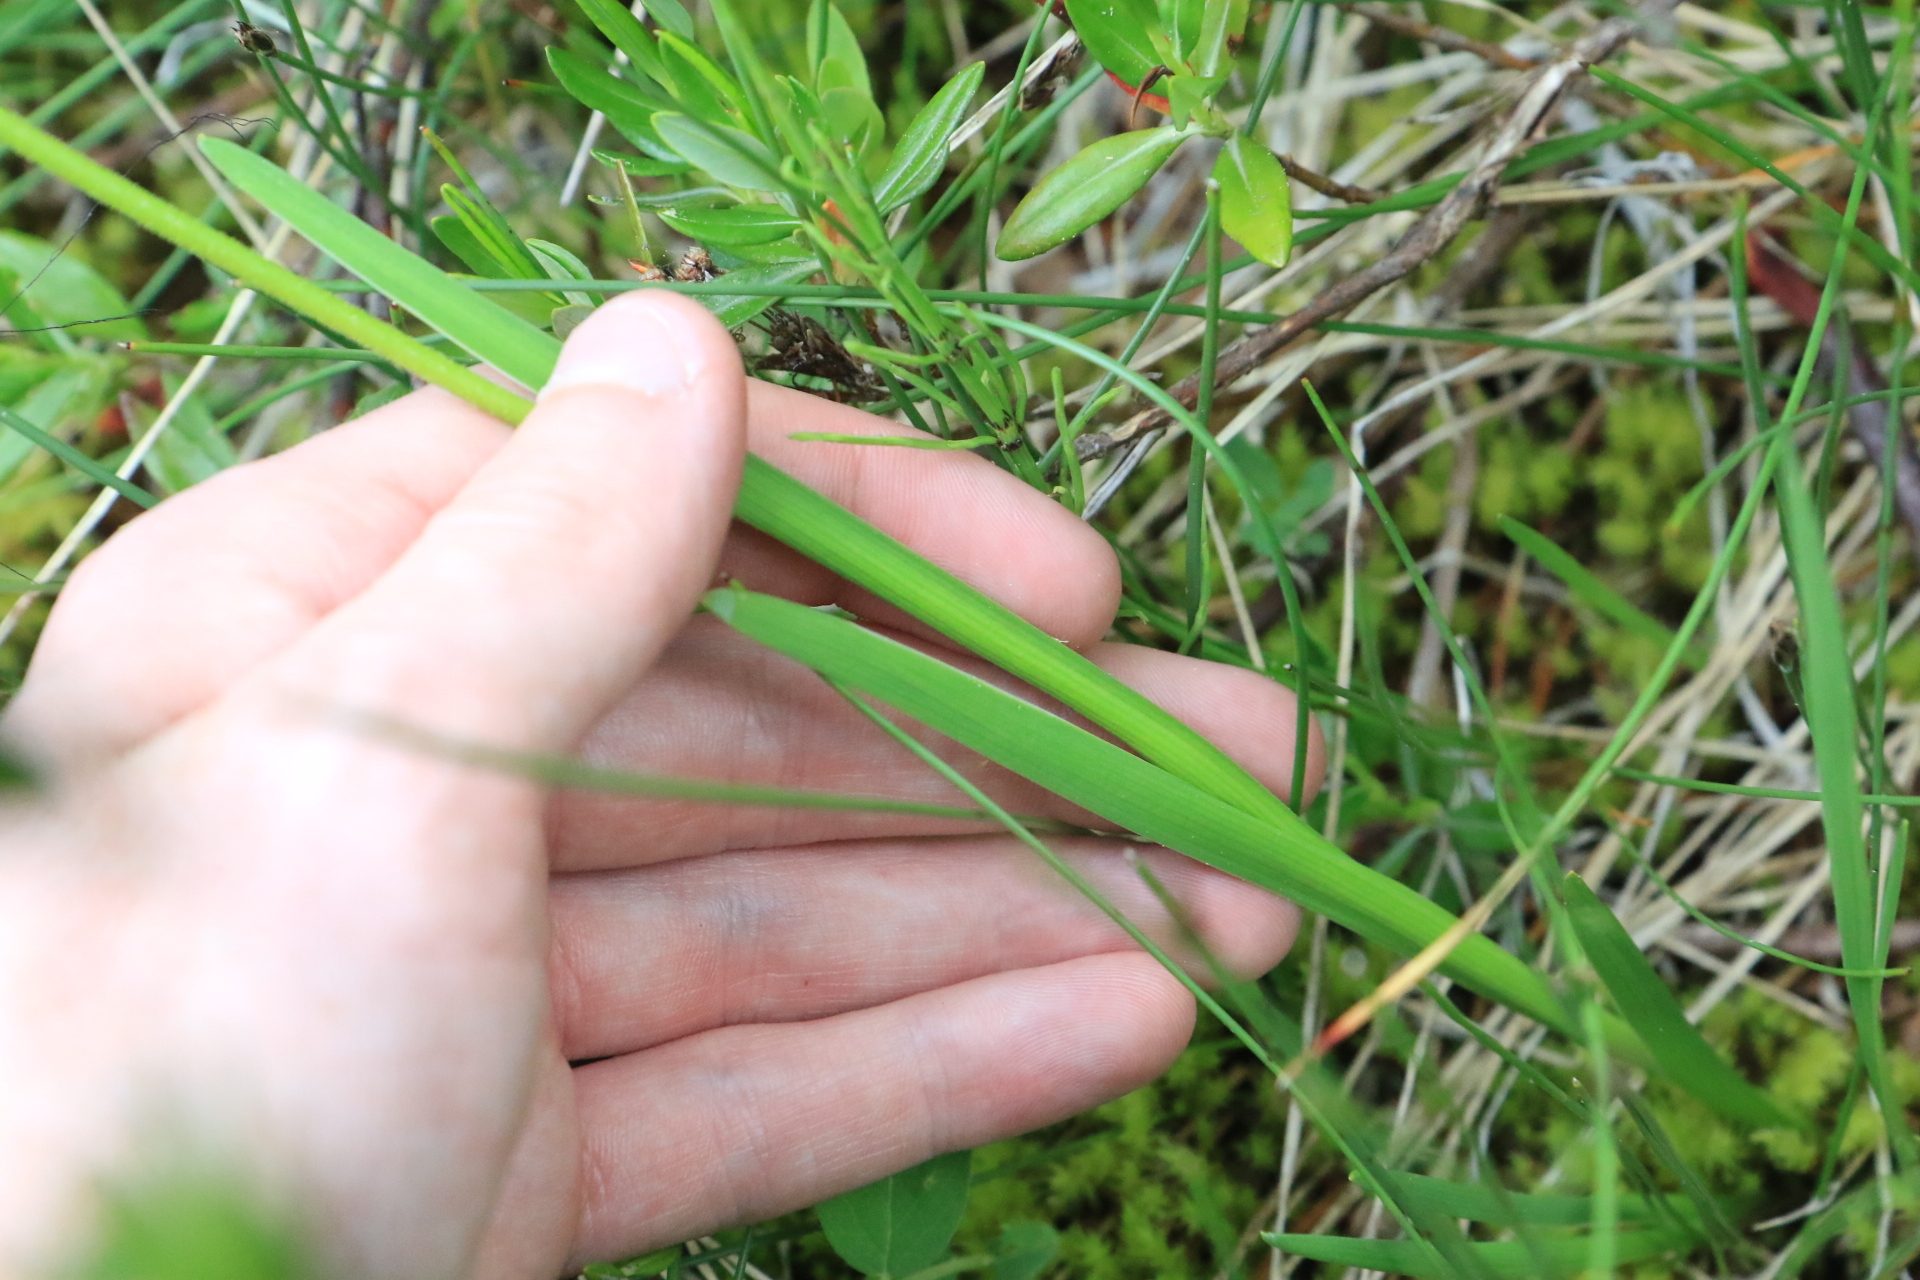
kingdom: Plantae
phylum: Tracheophyta
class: Liliopsida
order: Alismatales
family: Tofieldiaceae
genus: Triantha
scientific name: Triantha occidentalis
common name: Western false asphodel
